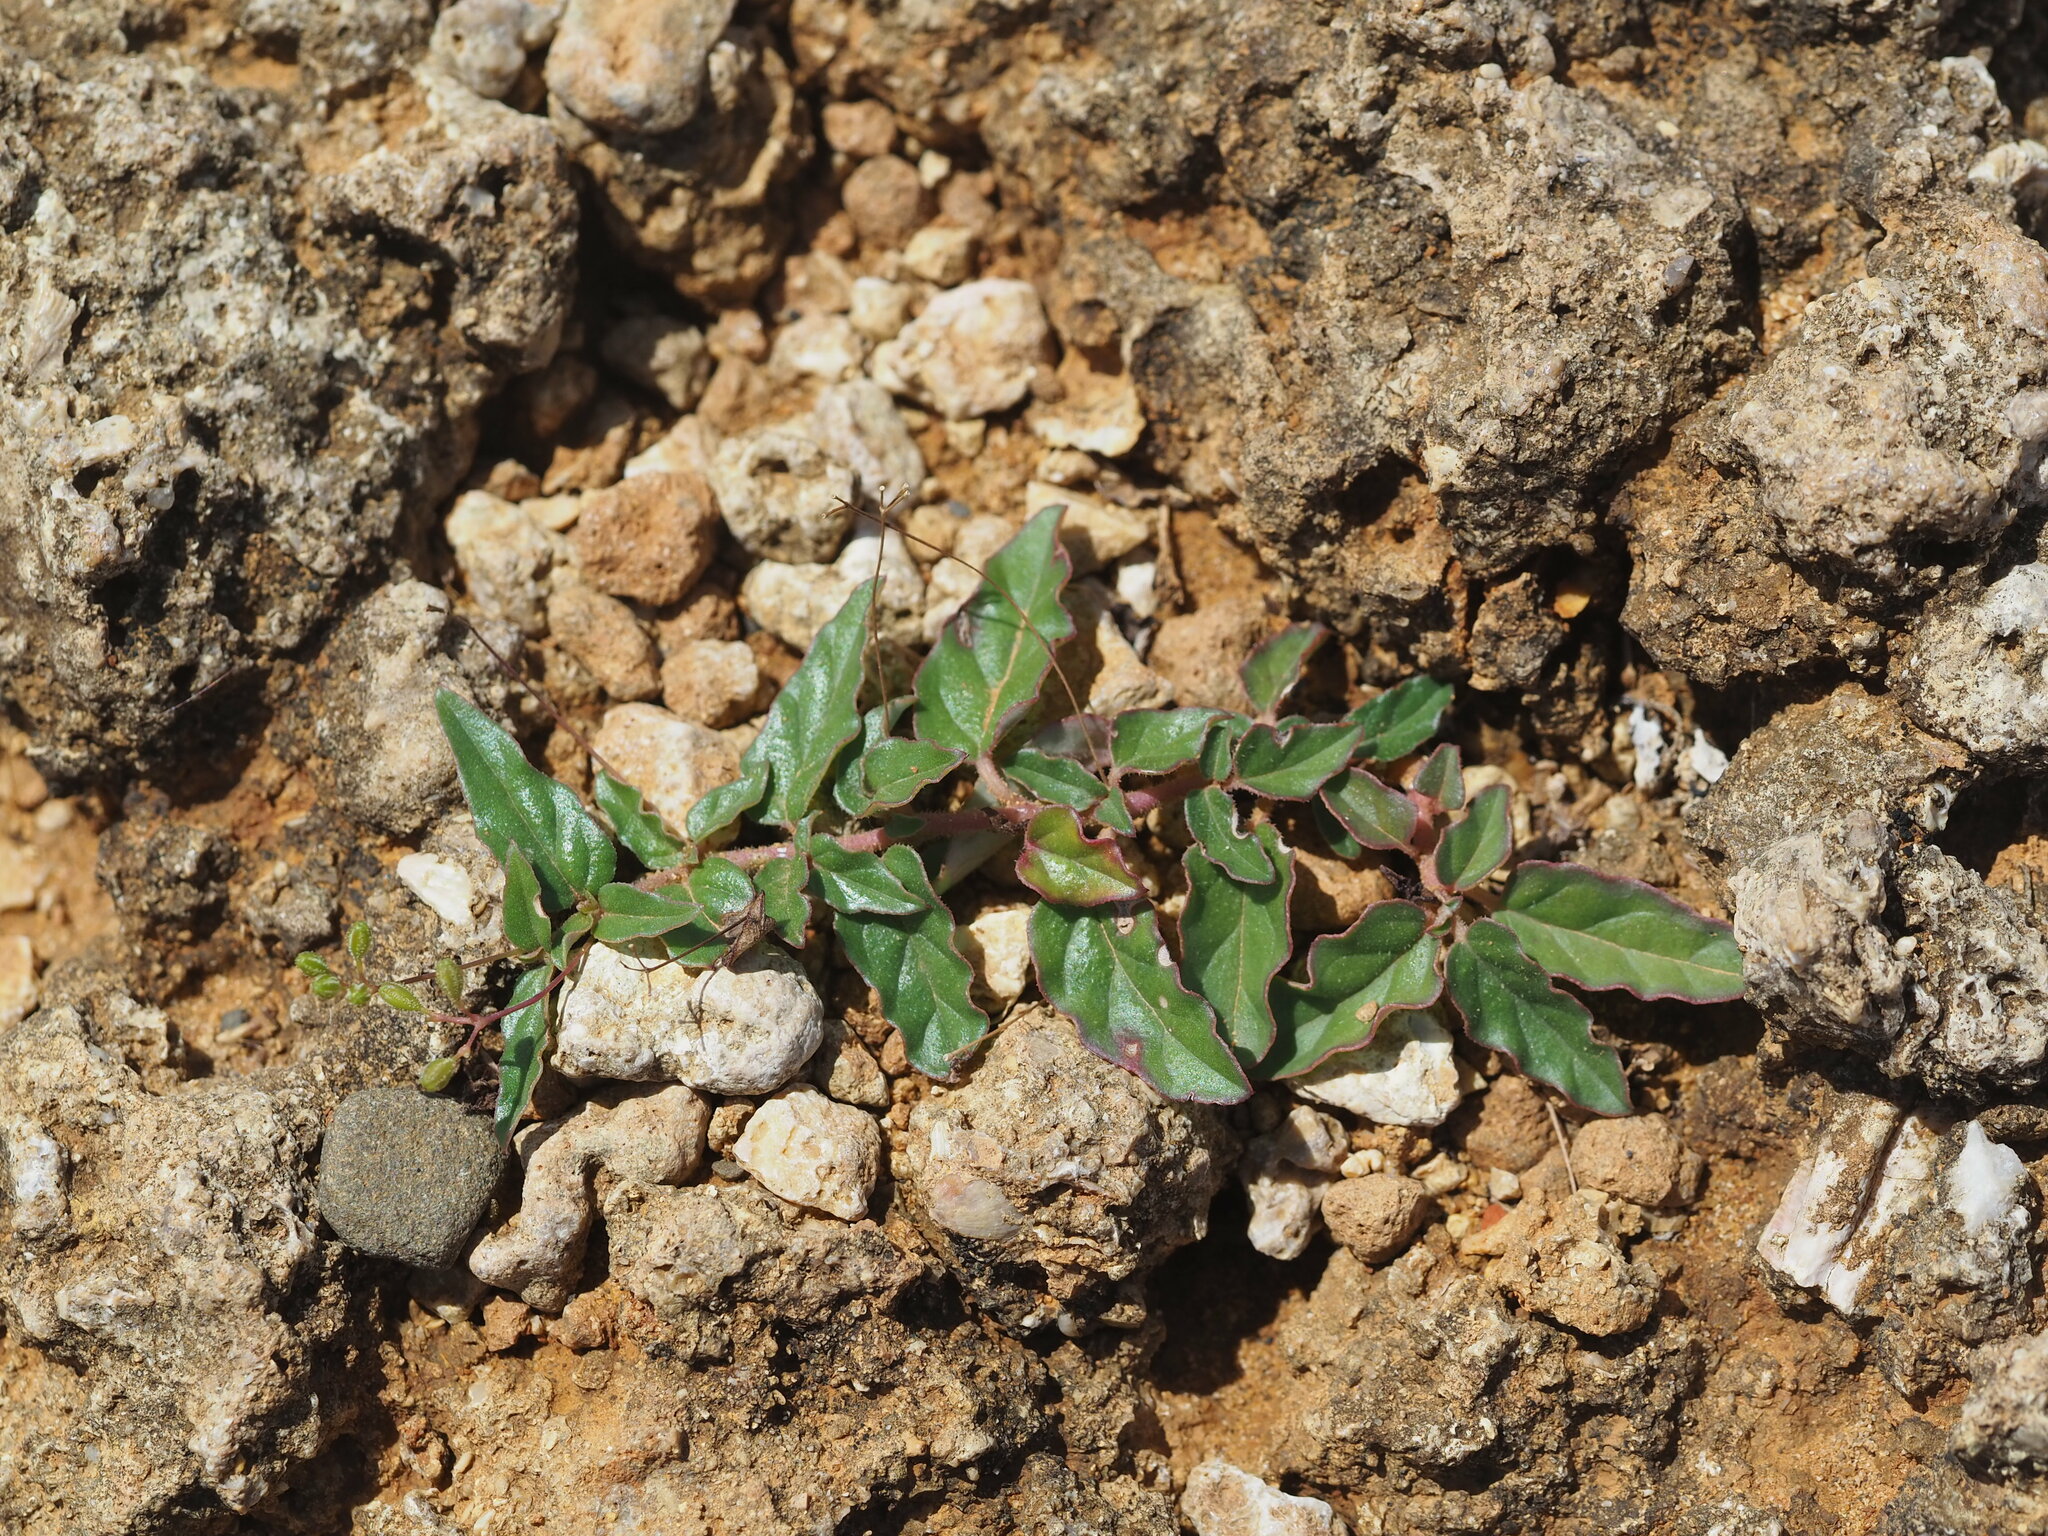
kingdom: Plantae
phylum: Tracheophyta
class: Magnoliopsida
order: Caryophyllales
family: Nyctaginaceae
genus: Boerhavia
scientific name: Boerhavia glabrata
